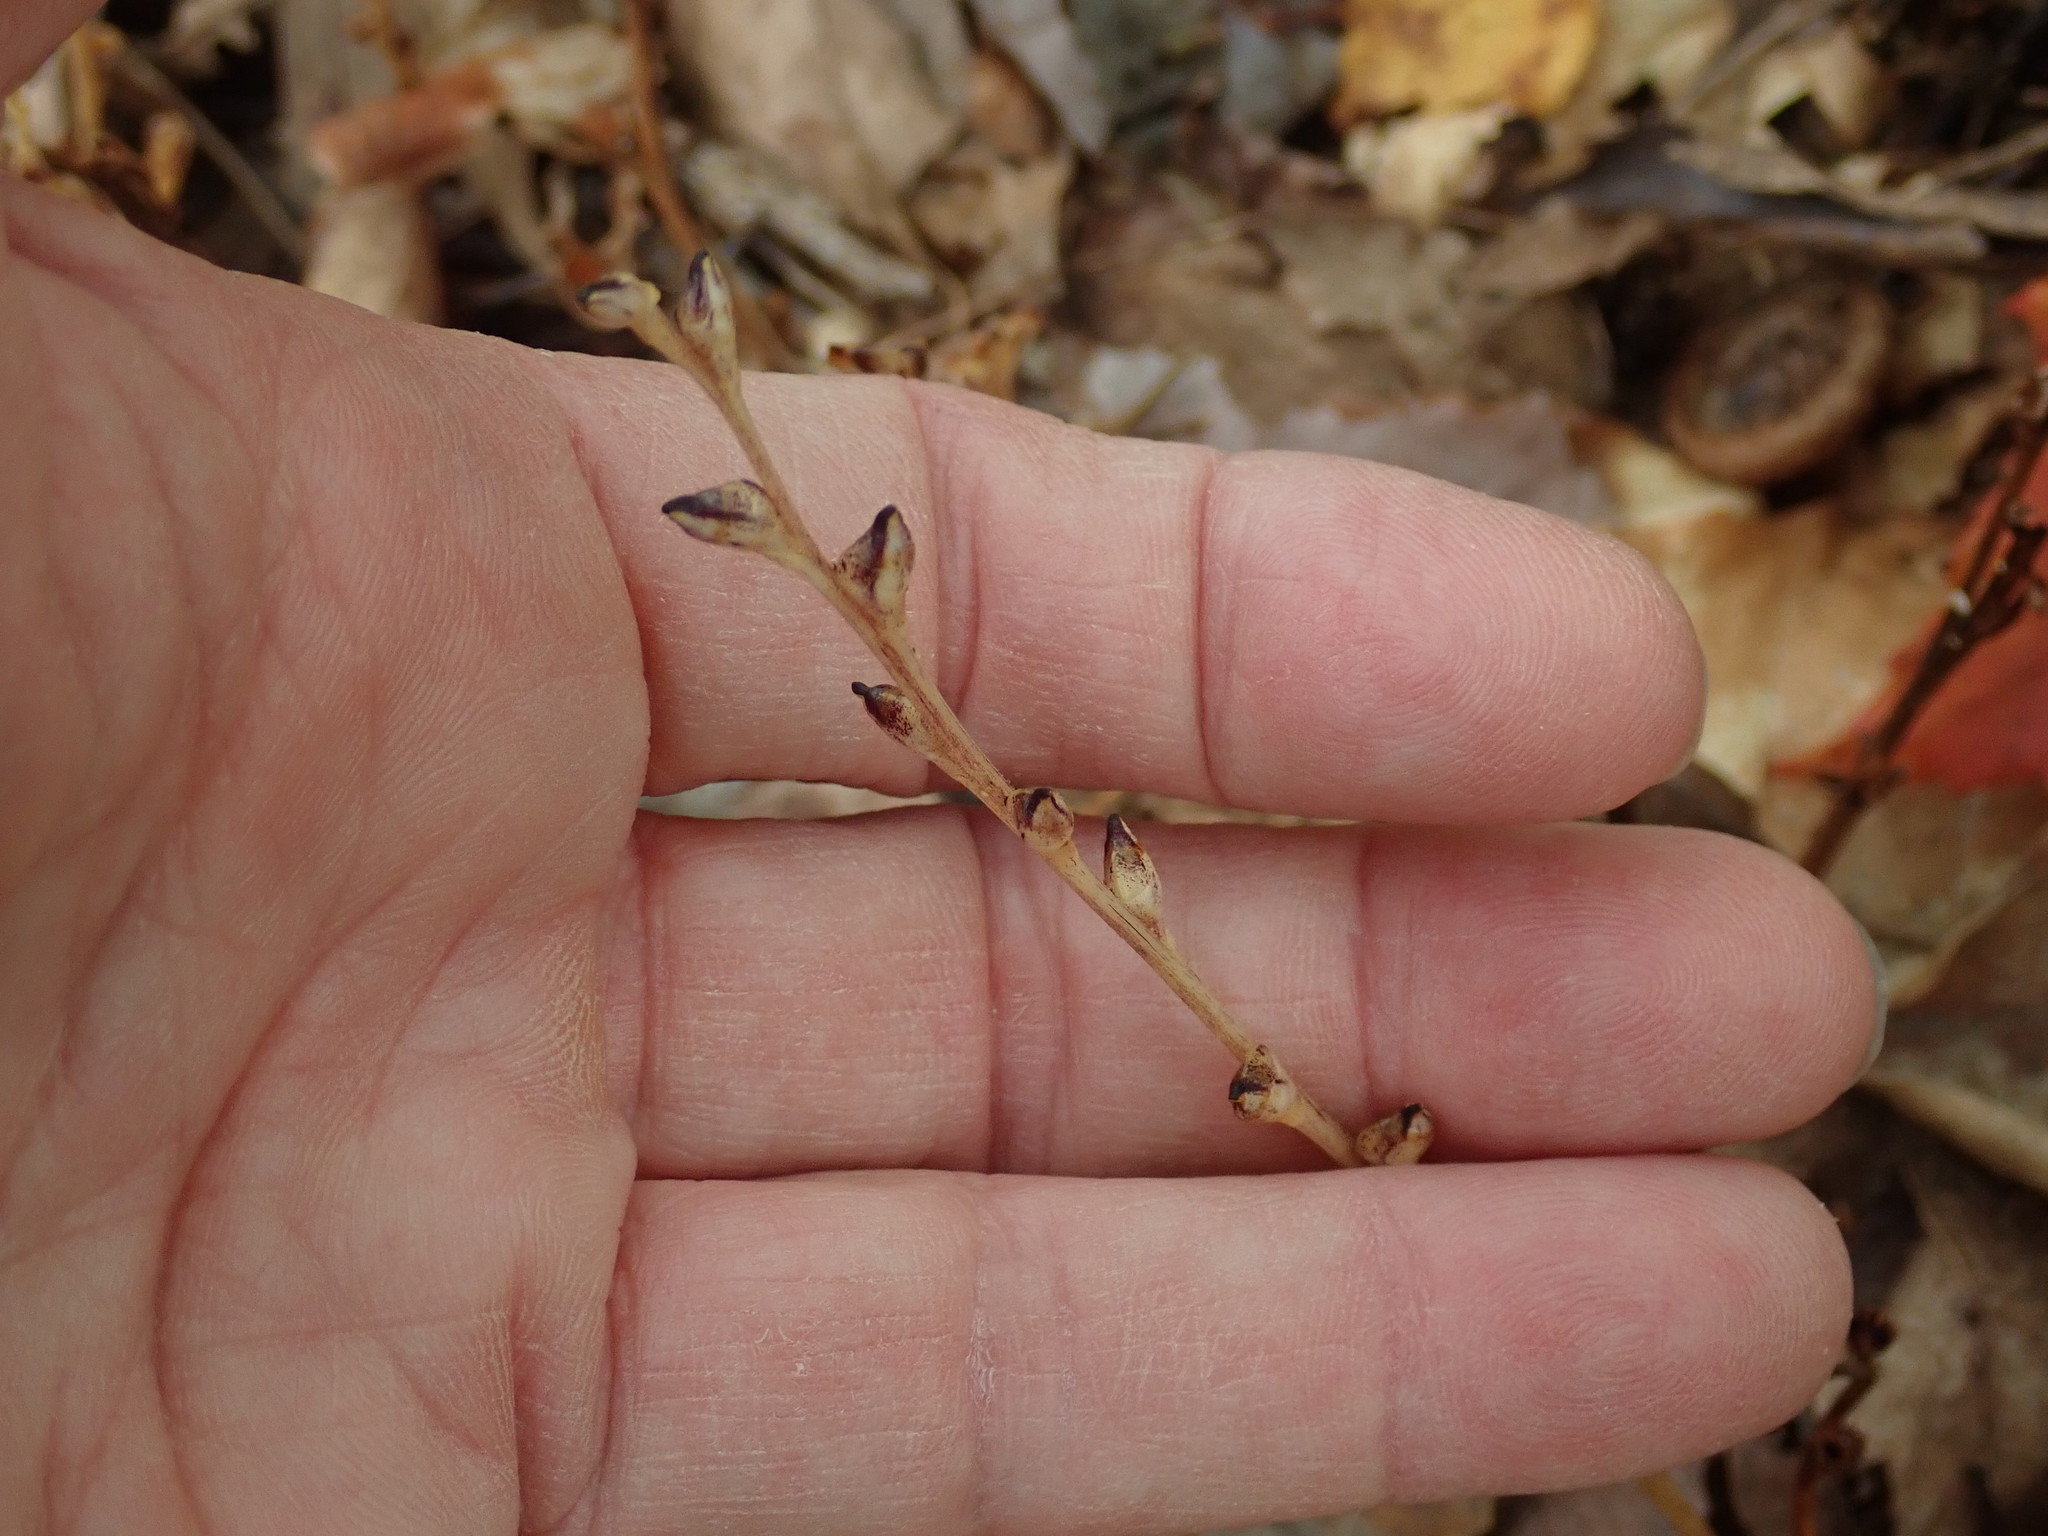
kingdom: Plantae
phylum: Tracheophyta
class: Magnoliopsida
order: Lamiales
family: Orobanchaceae
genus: Epifagus
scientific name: Epifagus virginiana
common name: Beechdrops
